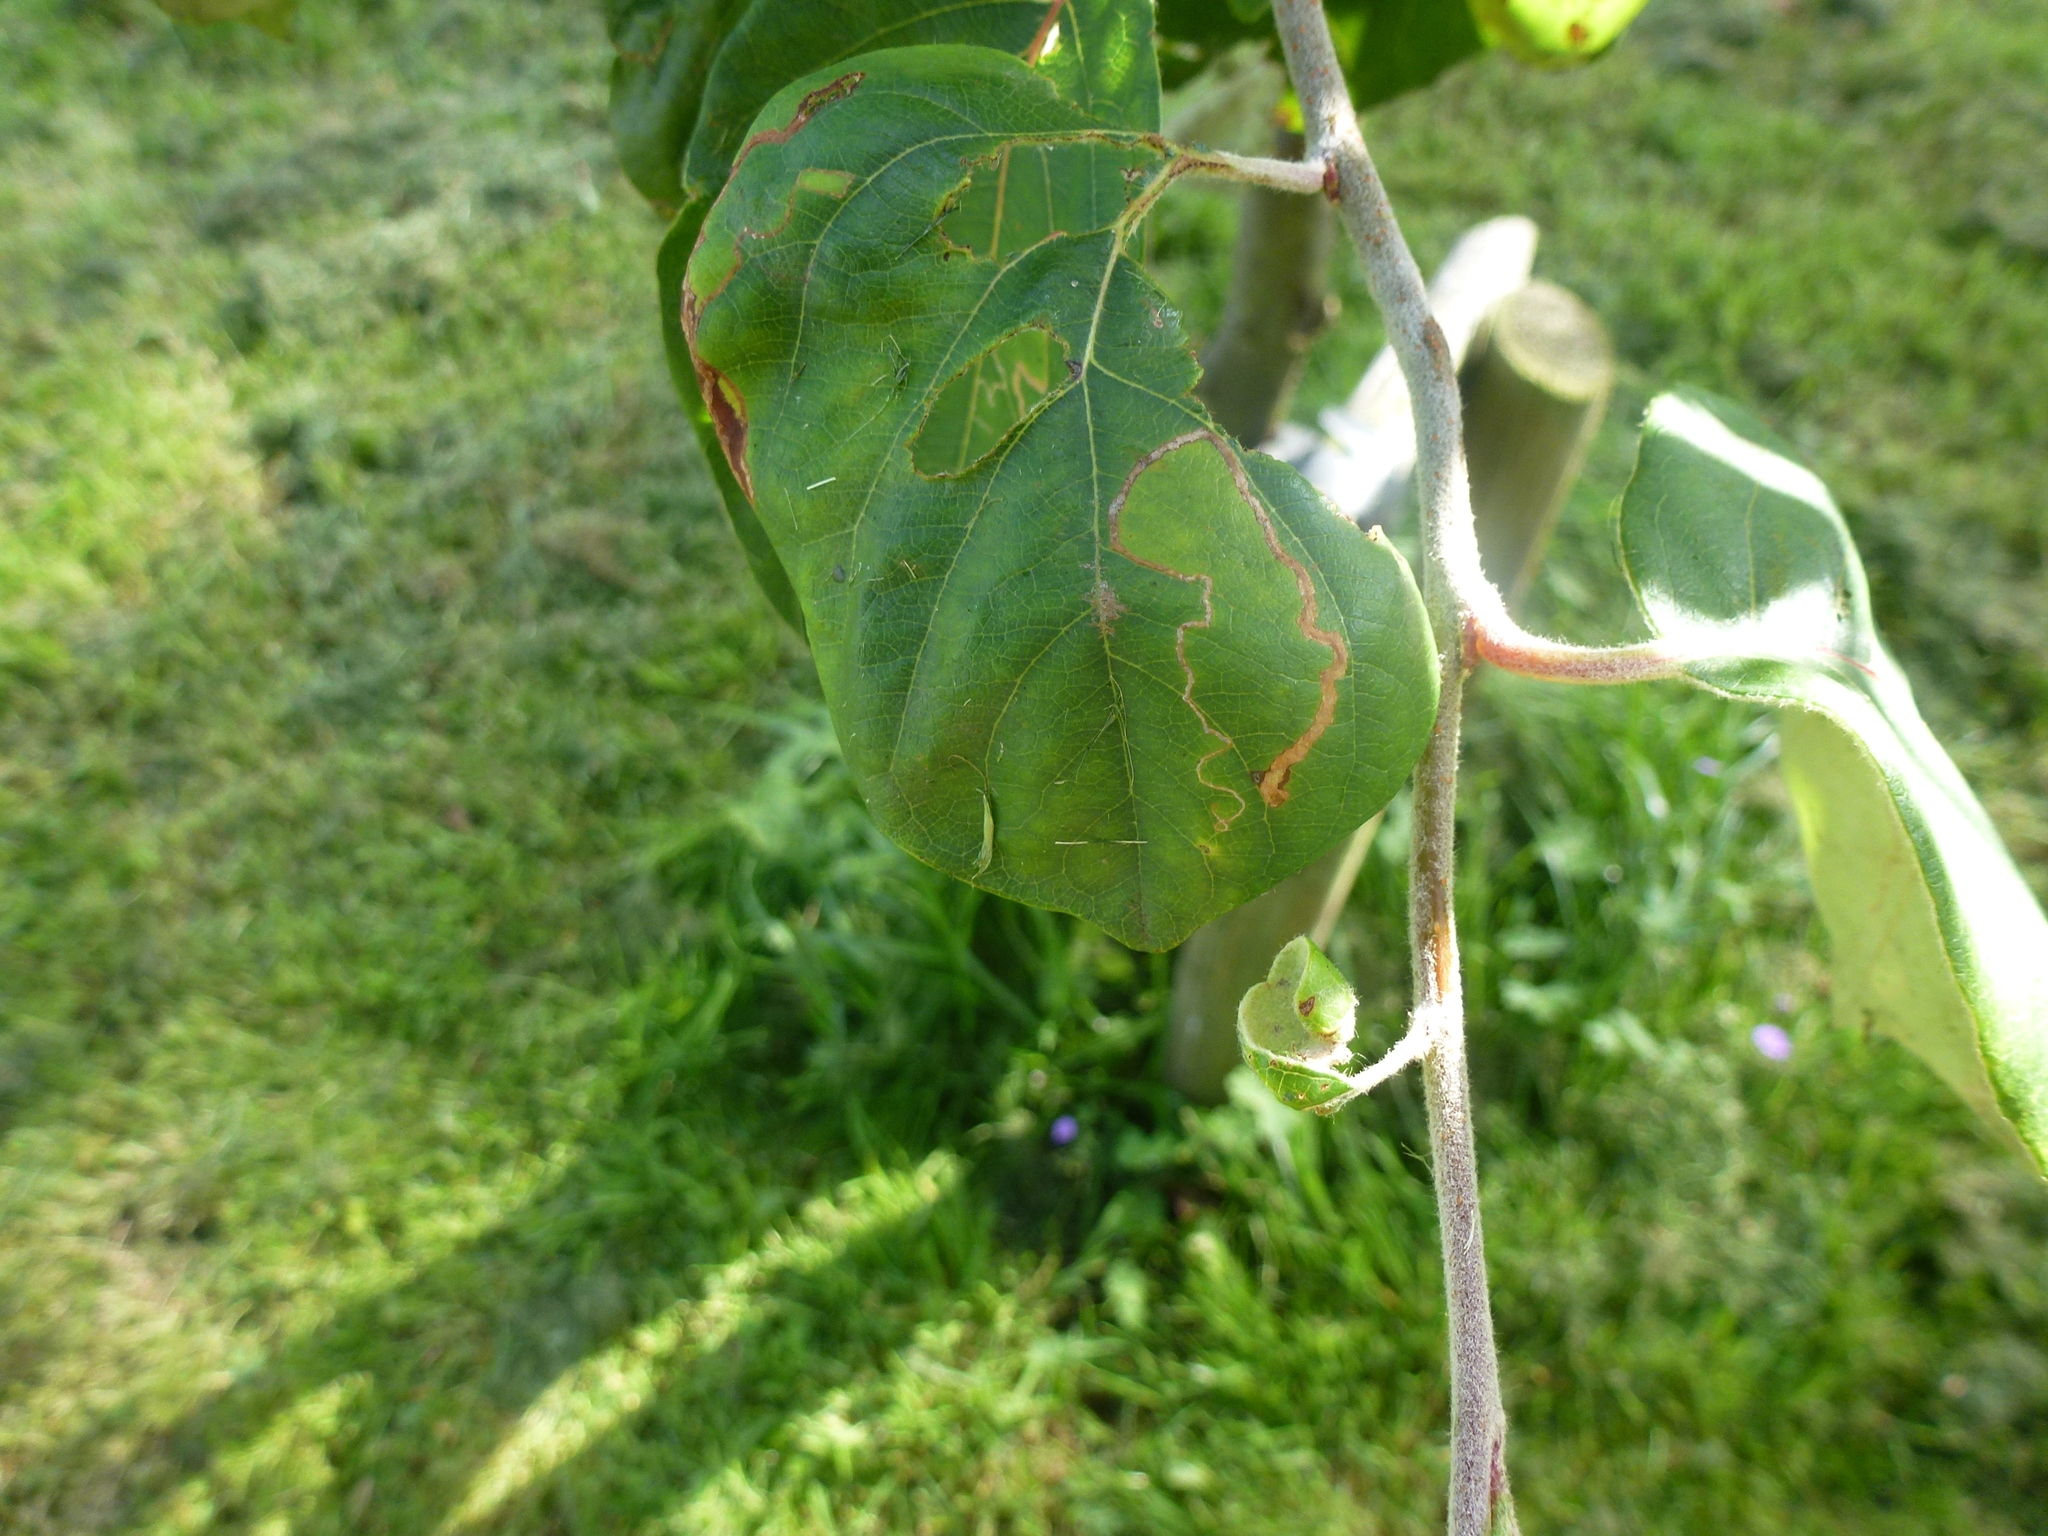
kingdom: Animalia
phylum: Arthropoda
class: Insecta
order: Lepidoptera
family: Lyonetiidae
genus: Lyonetia
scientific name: Lyonetia clerkella
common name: Apple leaf miner
